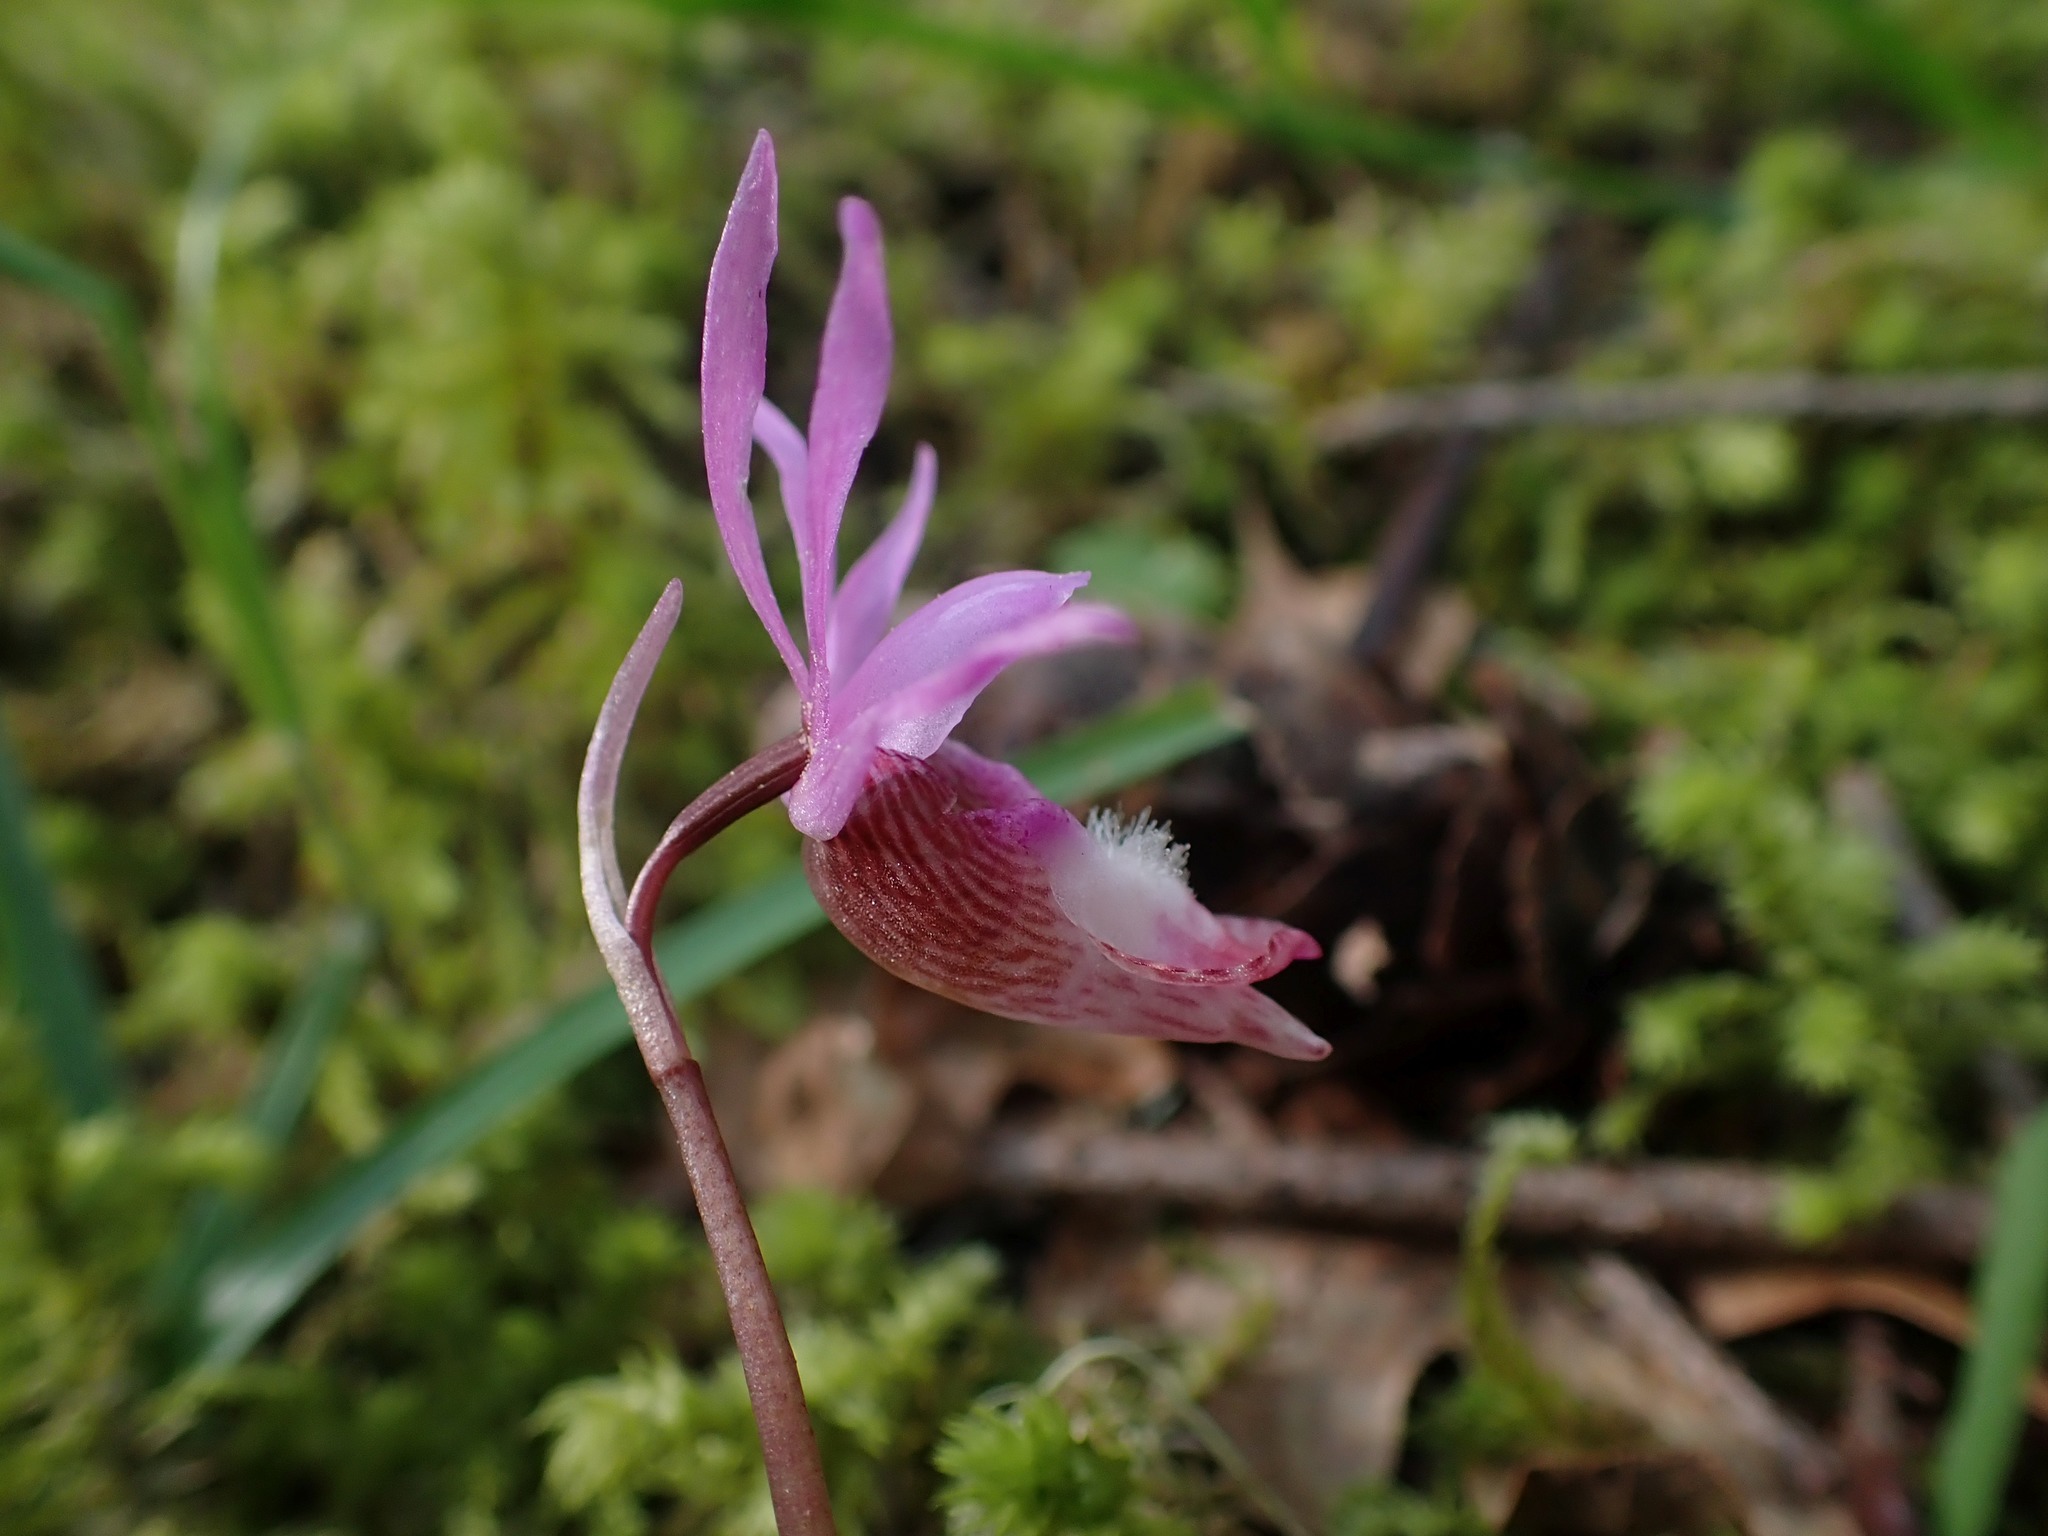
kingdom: Plantae
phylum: Tracheophyta
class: Liliopsida
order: Asparagales
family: Orchidaceae
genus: Calypso
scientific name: Calypso bulbosa
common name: Calypso
